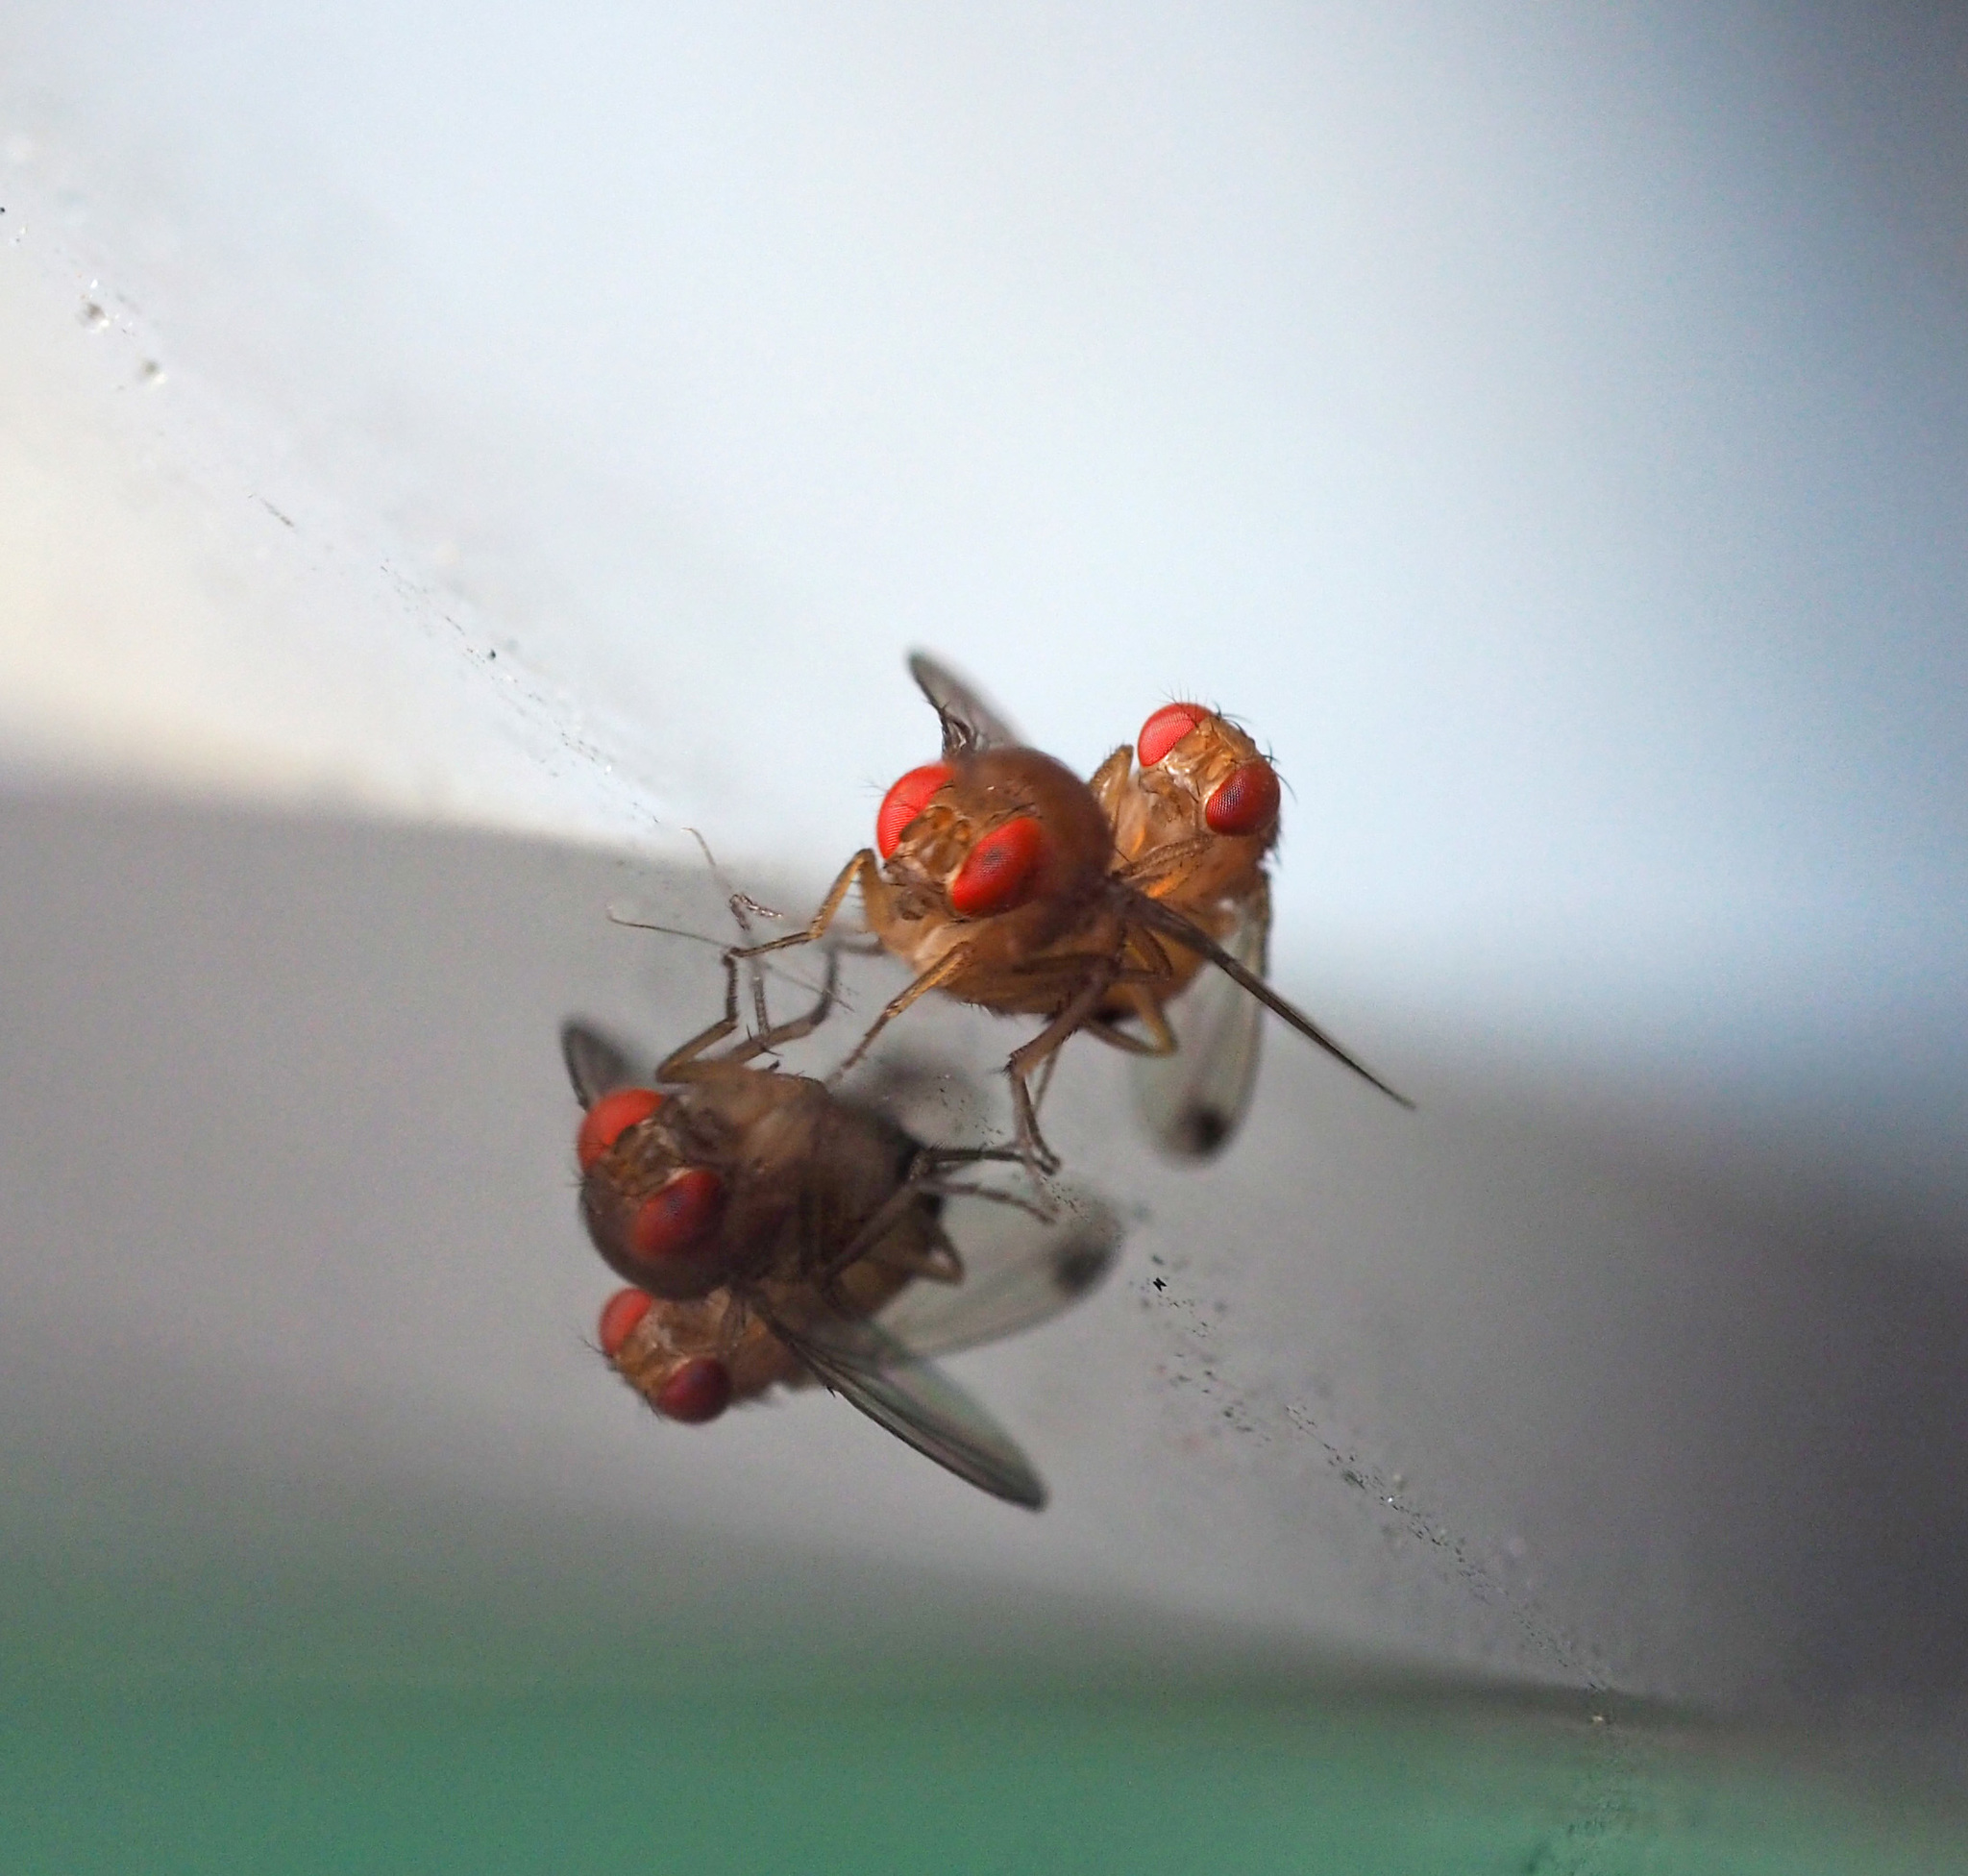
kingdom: Animalia
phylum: Arthropoda
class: Insecta
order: Diptera
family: Drosophilidae
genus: Drosophila
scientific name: Drosophila suzukii
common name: Spotted-wing drosophila
